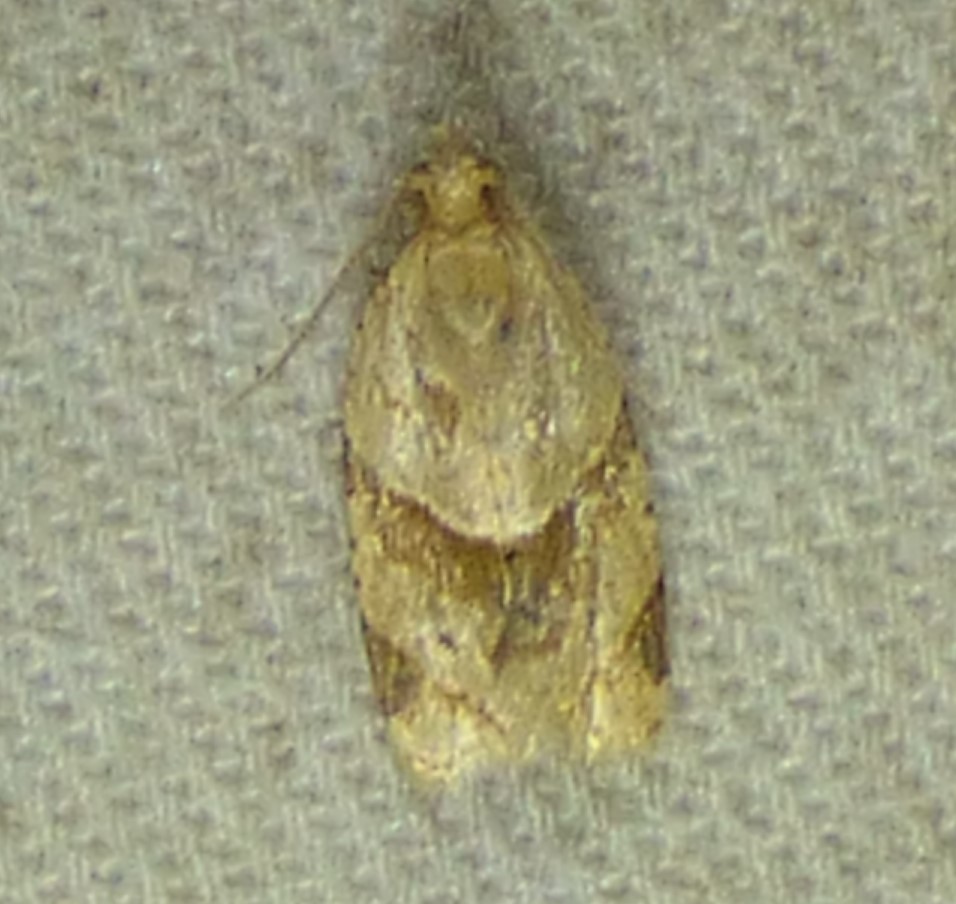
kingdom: Animalia
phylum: Arthropoda
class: Insecta
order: Lepidoptera
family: Tortricidae
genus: Clepsis
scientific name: Clepsis peritana
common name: Garden tortrix
